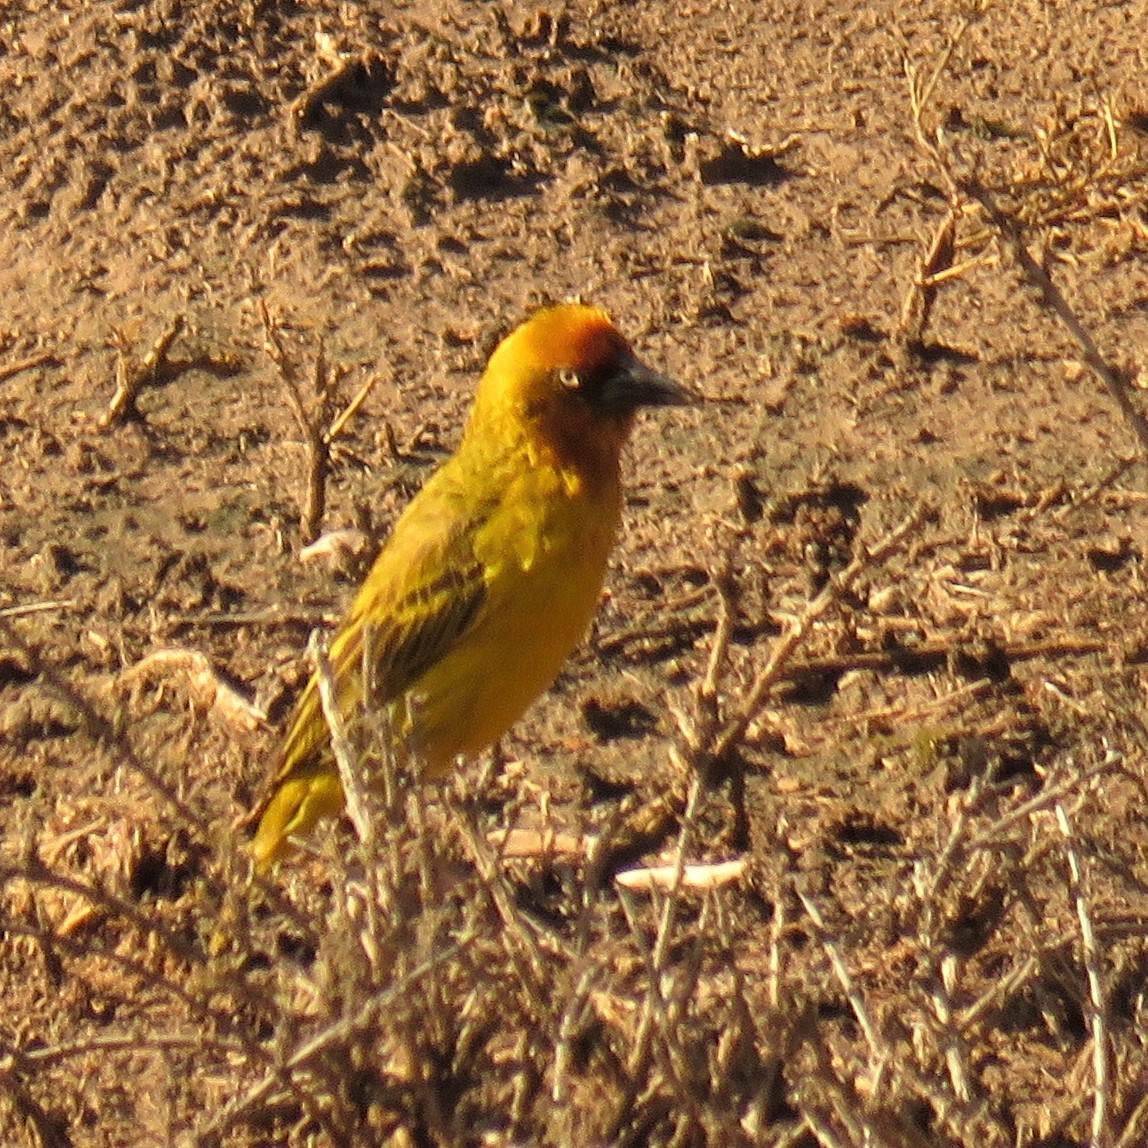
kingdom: Animalia
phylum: Chordata
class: Aves
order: Passeriformes
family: Ploceidae
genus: Ploceus
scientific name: Ploceus capensis
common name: Cape weaver
